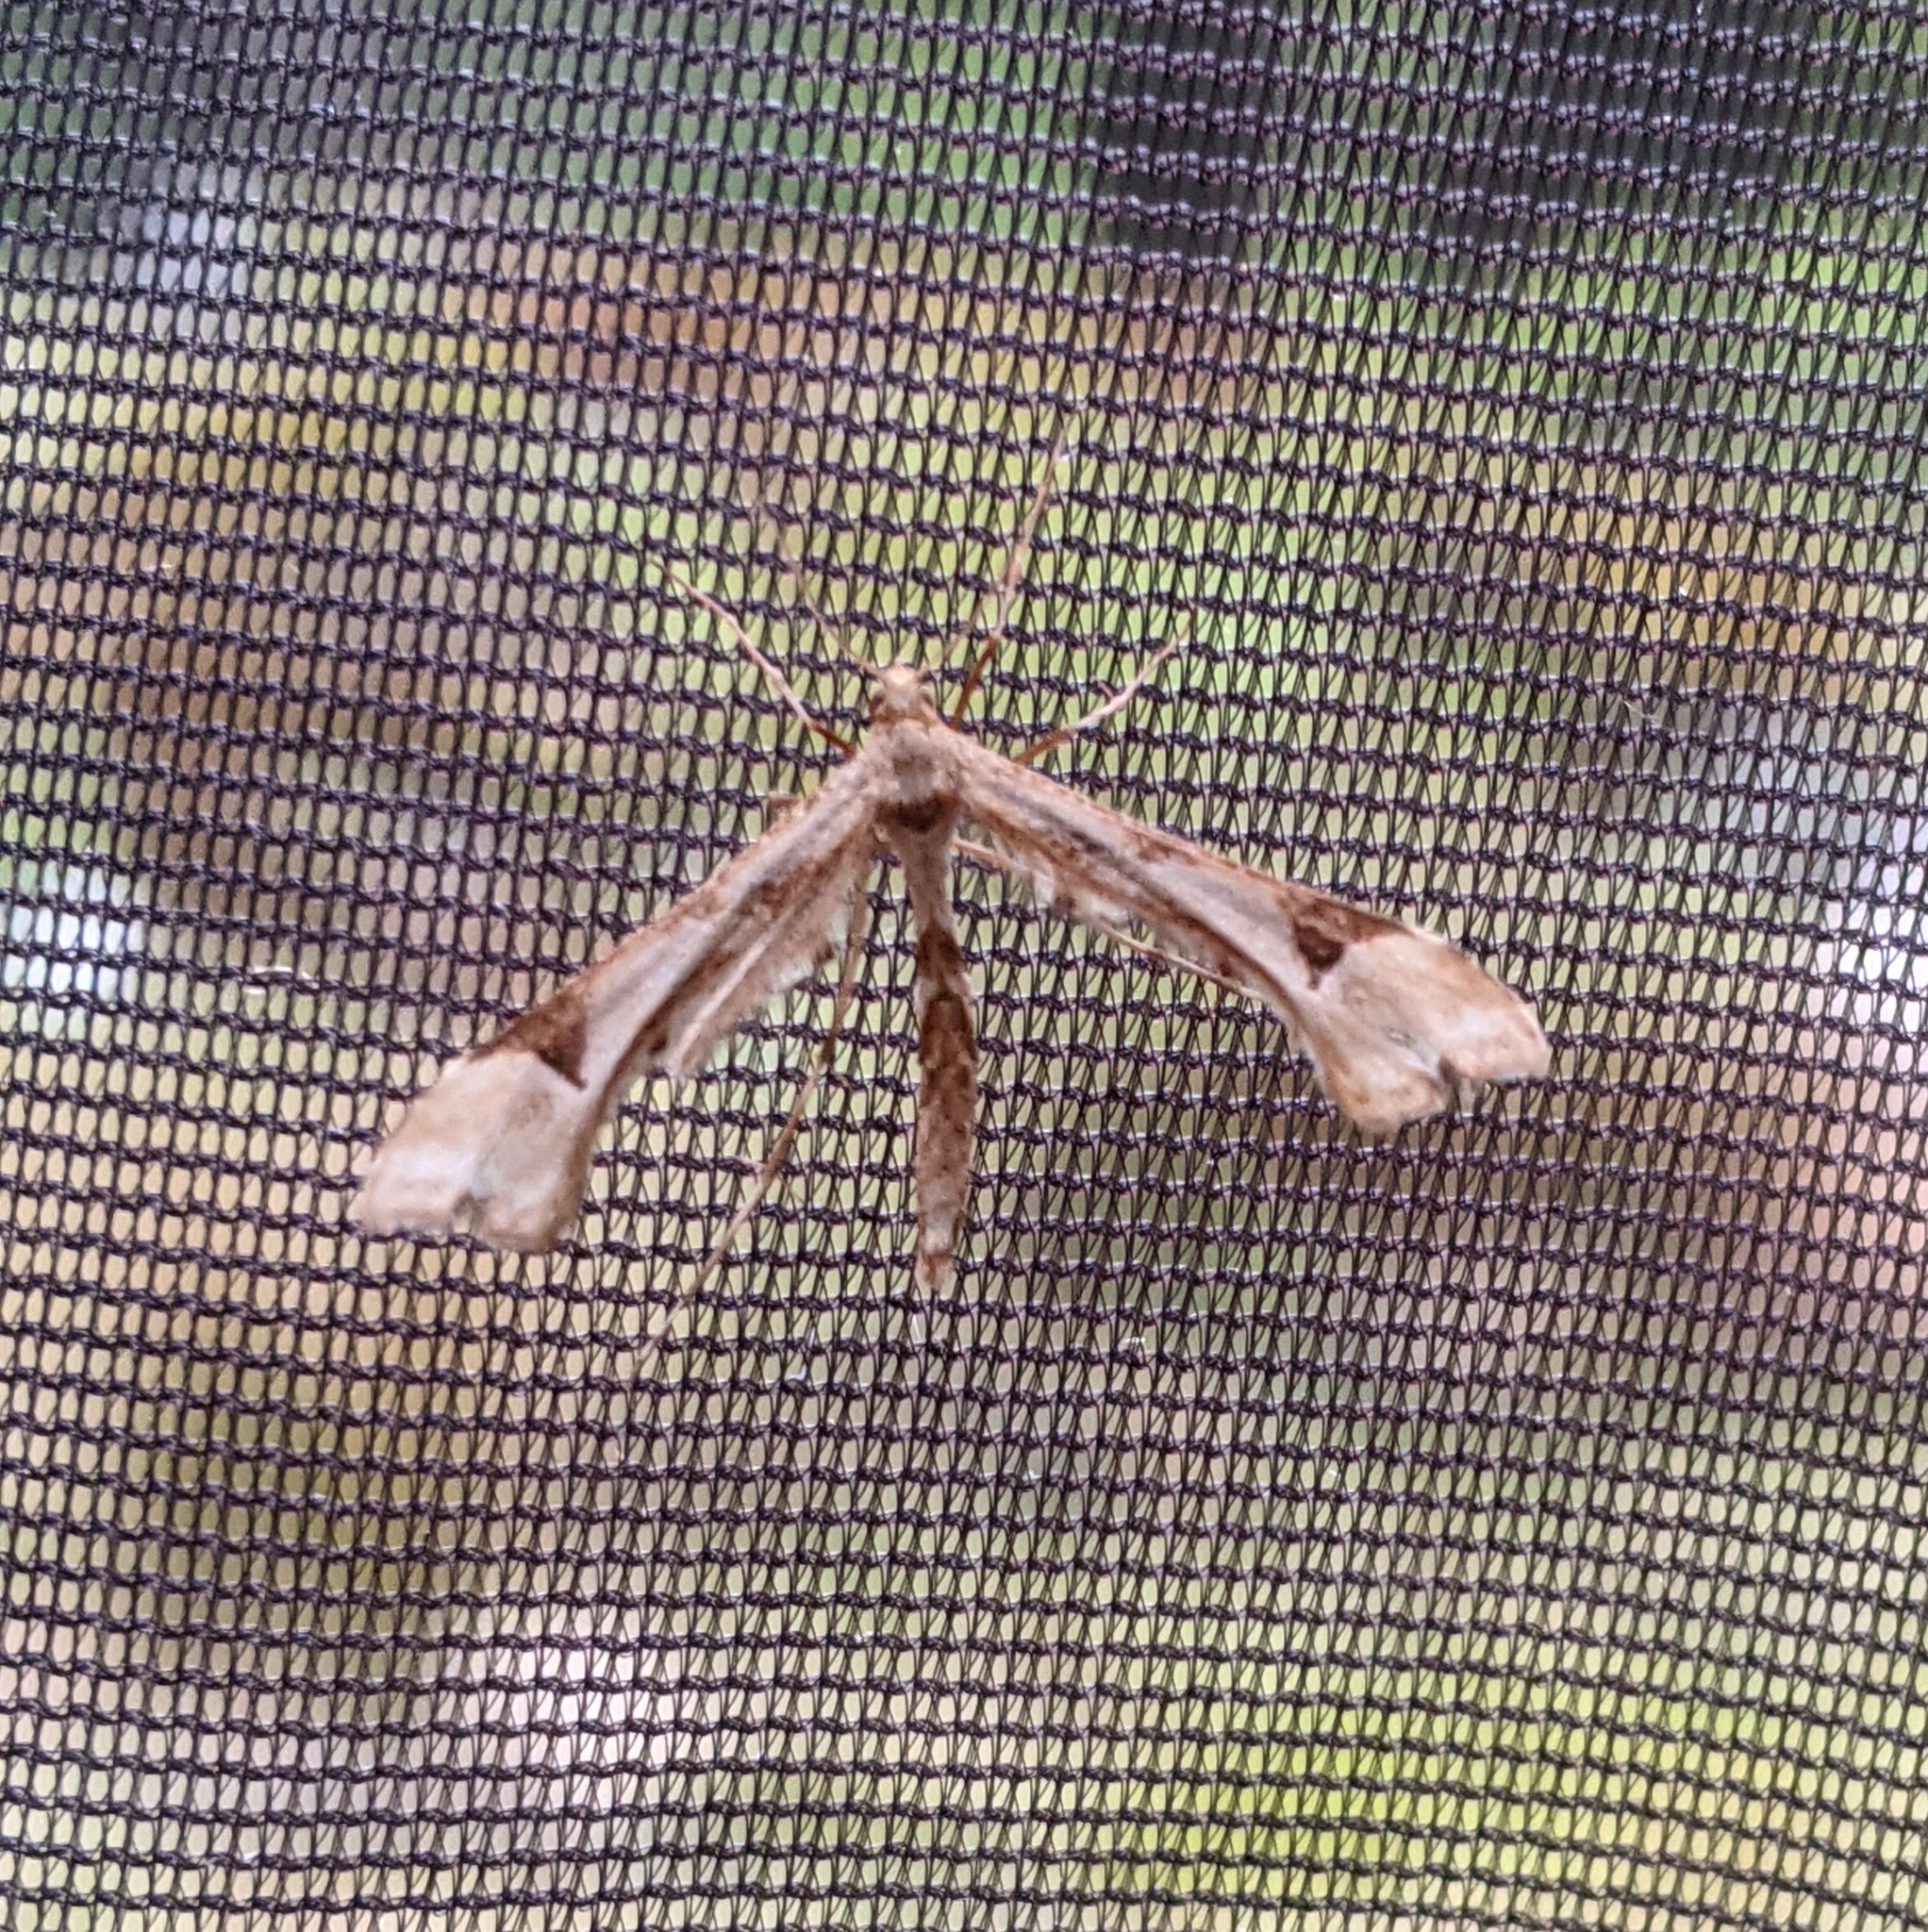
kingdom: Animalia
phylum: Arthropoda
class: Insecta
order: Lepidoptera
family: Pterophoridae
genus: Platyptilia
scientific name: Platyptilia carduidactylus
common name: Artichoke plume moth
